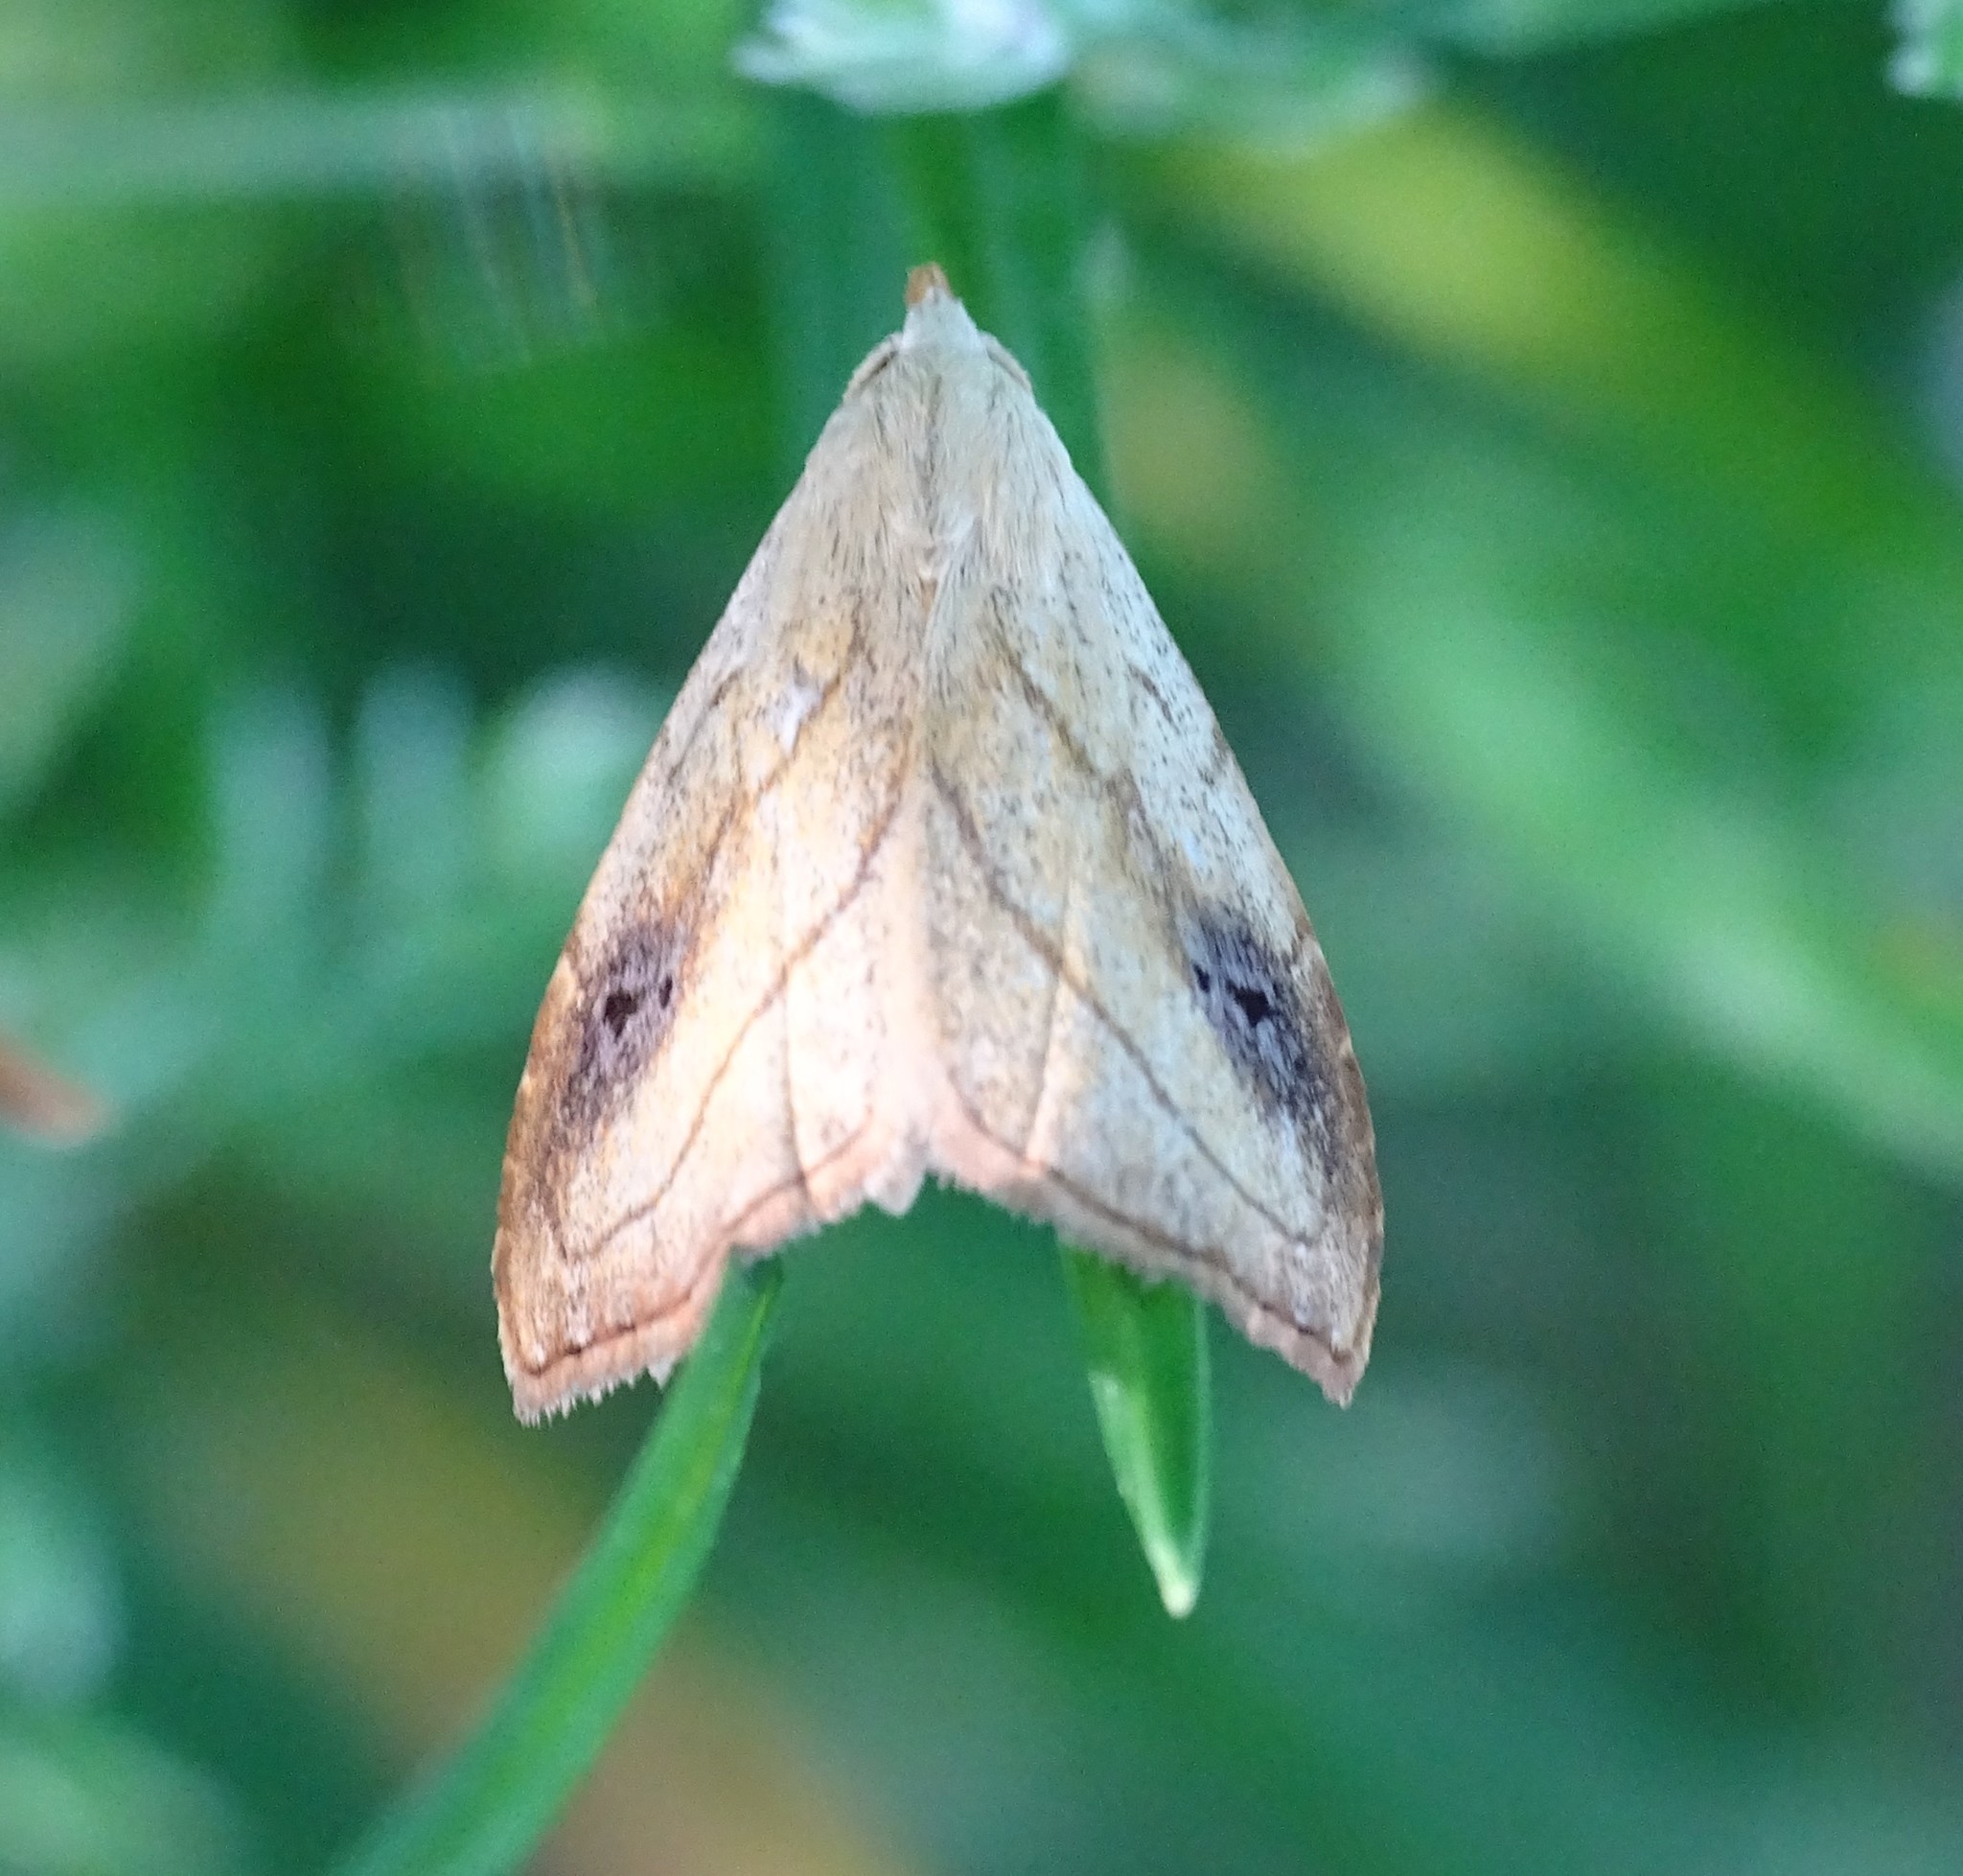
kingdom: Animalia
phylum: Arthropoda
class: Insecta
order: Lepidoptera
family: Erebidae
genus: Rivula
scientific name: Rivula propinqualis
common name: Spotted grass moth
